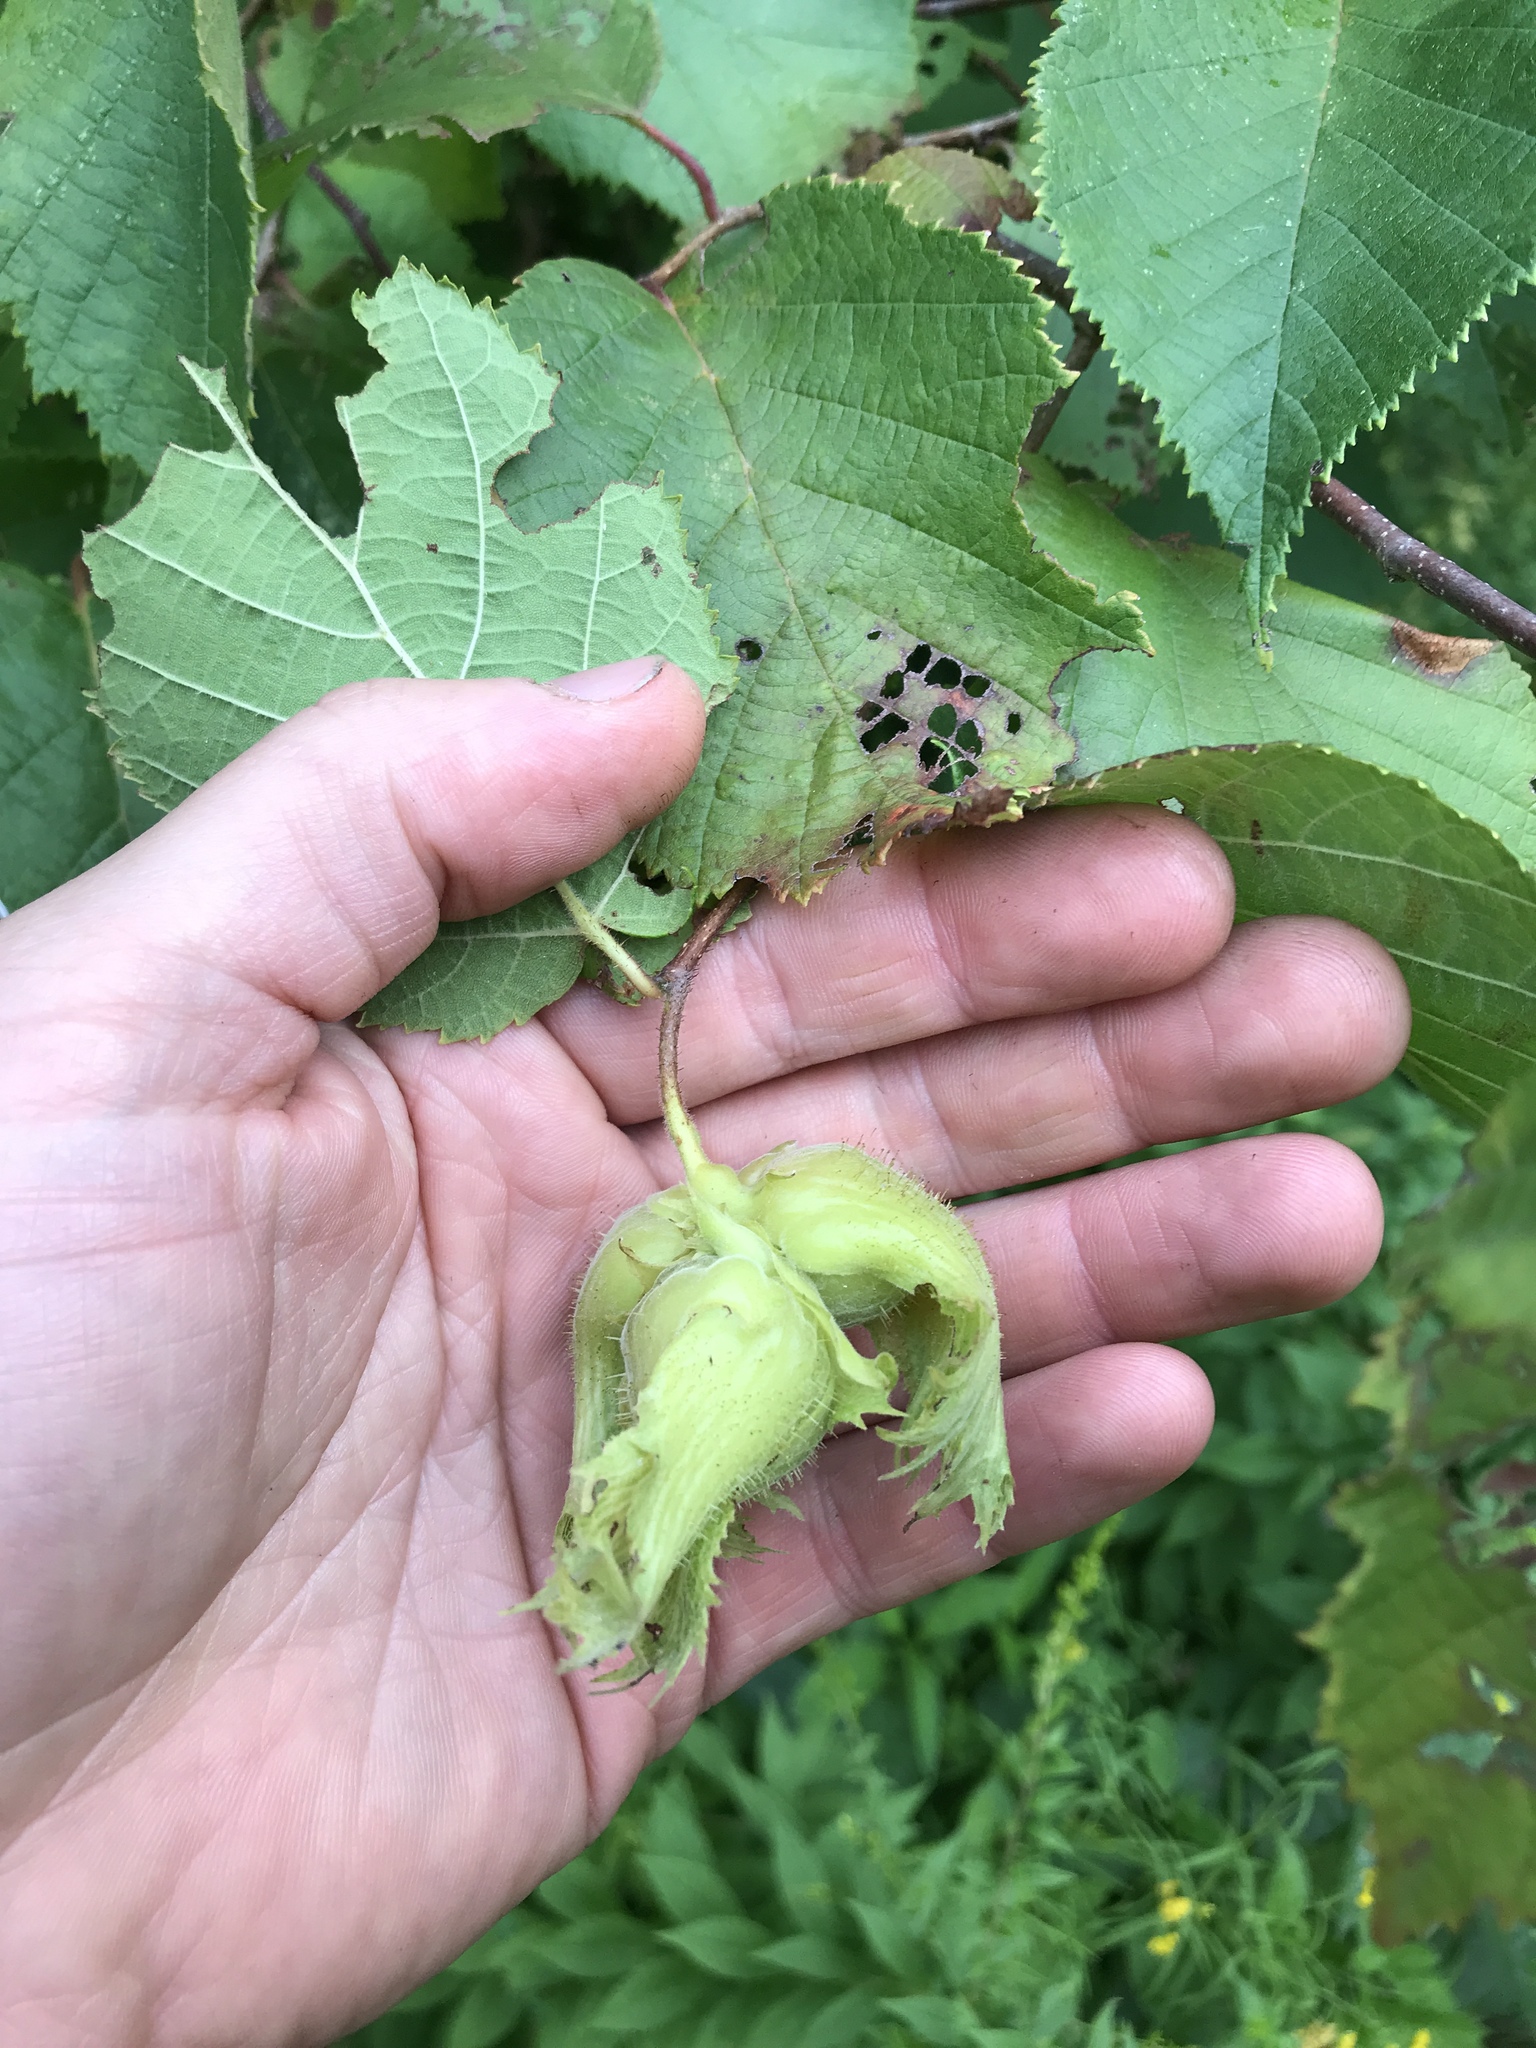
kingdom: Plantae
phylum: Tracheophyta
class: Magnoliopsida
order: Fagales
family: Betulaceae
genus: Corylus
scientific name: Corylus americana
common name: American hazel
